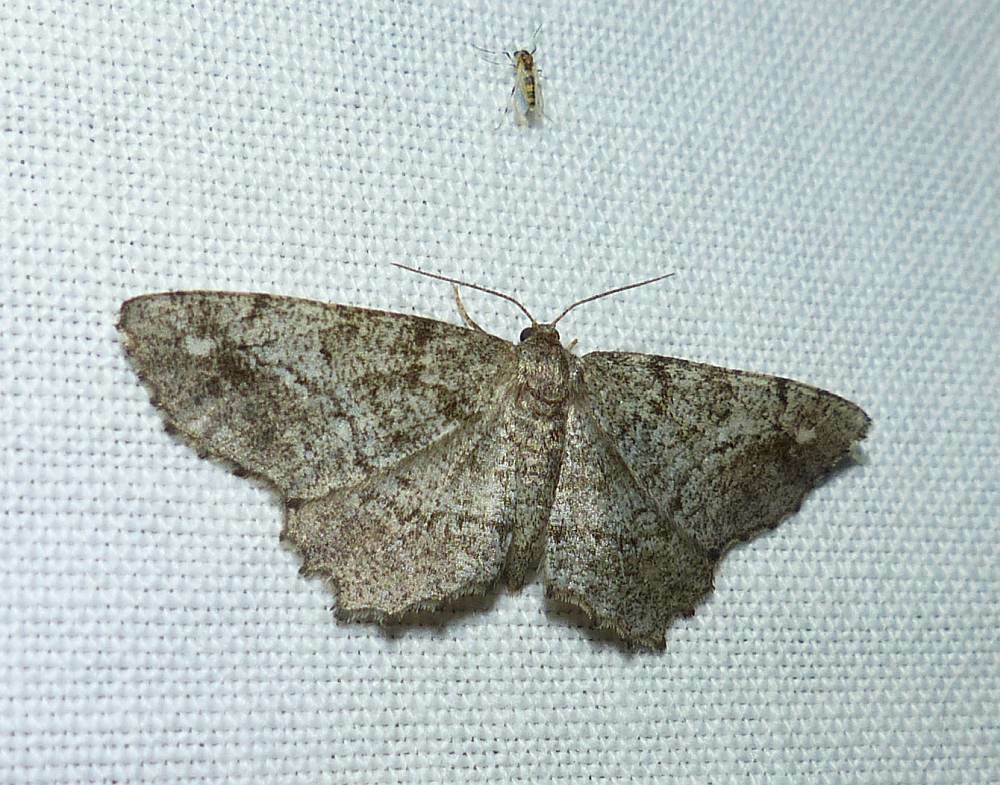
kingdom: Animalia
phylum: Arthropoda
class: Insecta
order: Lepidoptera
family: Geometridae
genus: Hypagyrtis
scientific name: Hypagyrtis unipunctata
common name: One-spotted variant
